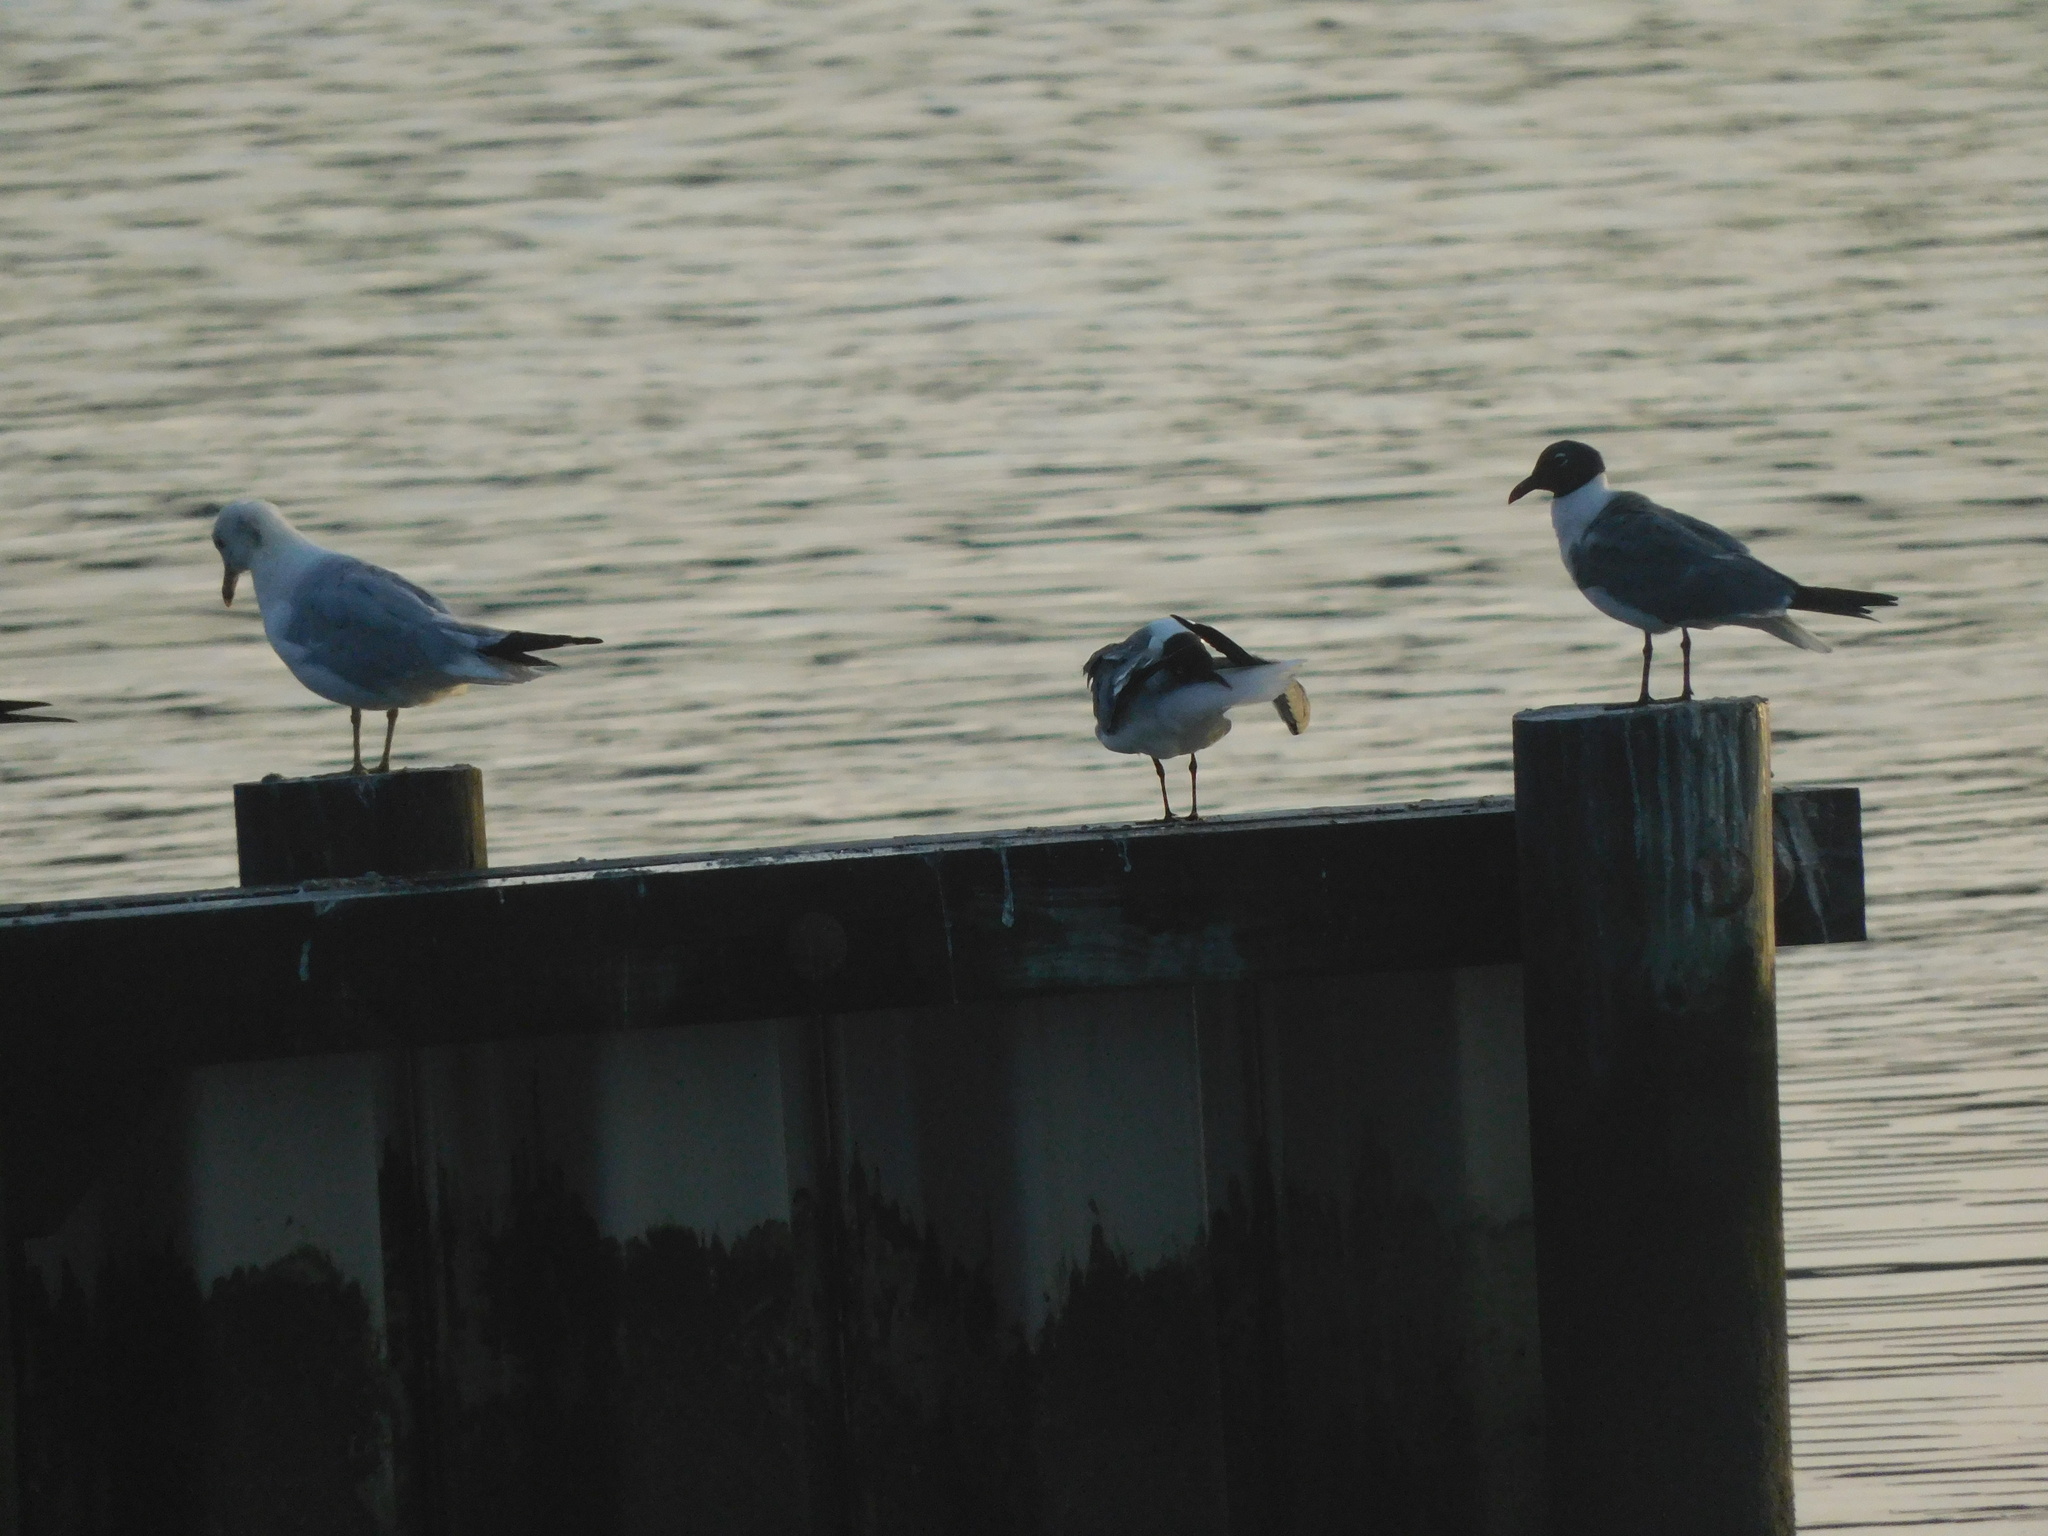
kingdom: Animalia
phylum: Chordata
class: Aves
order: Charadriiformes
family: Laridae
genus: Leucophaeus
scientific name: Leucophaeus atricilla
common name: Laughing gull
